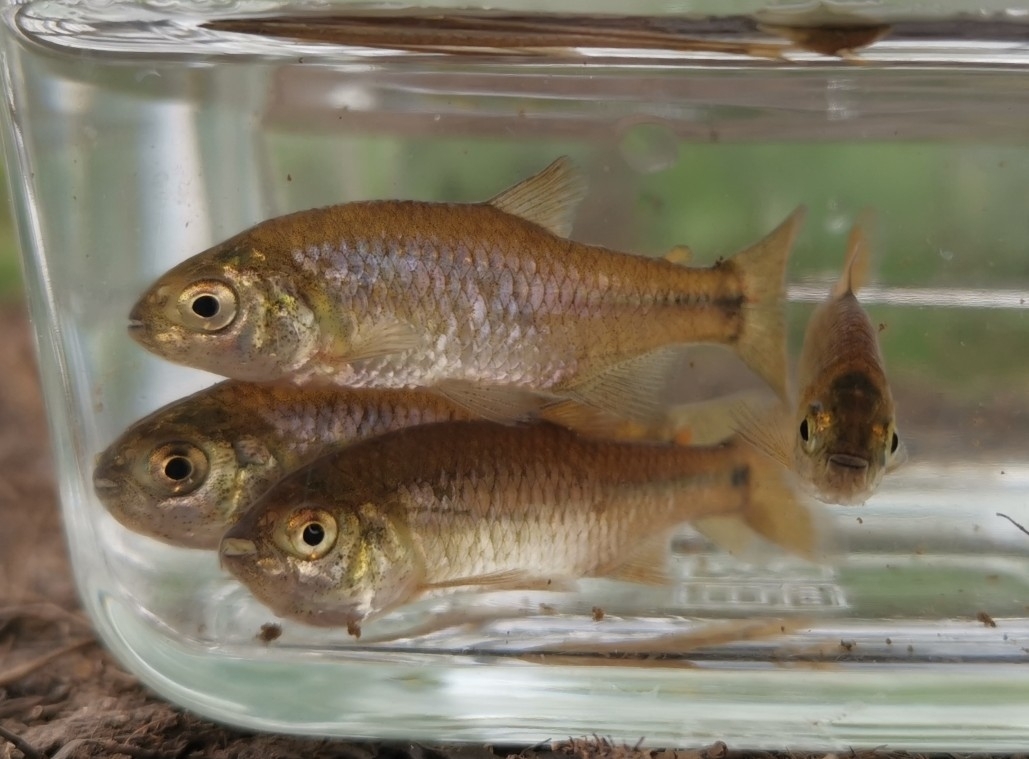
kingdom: Animalia
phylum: Chordata
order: Characiformes
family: Characidae
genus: Cheirodon
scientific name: Cheirodon australe
